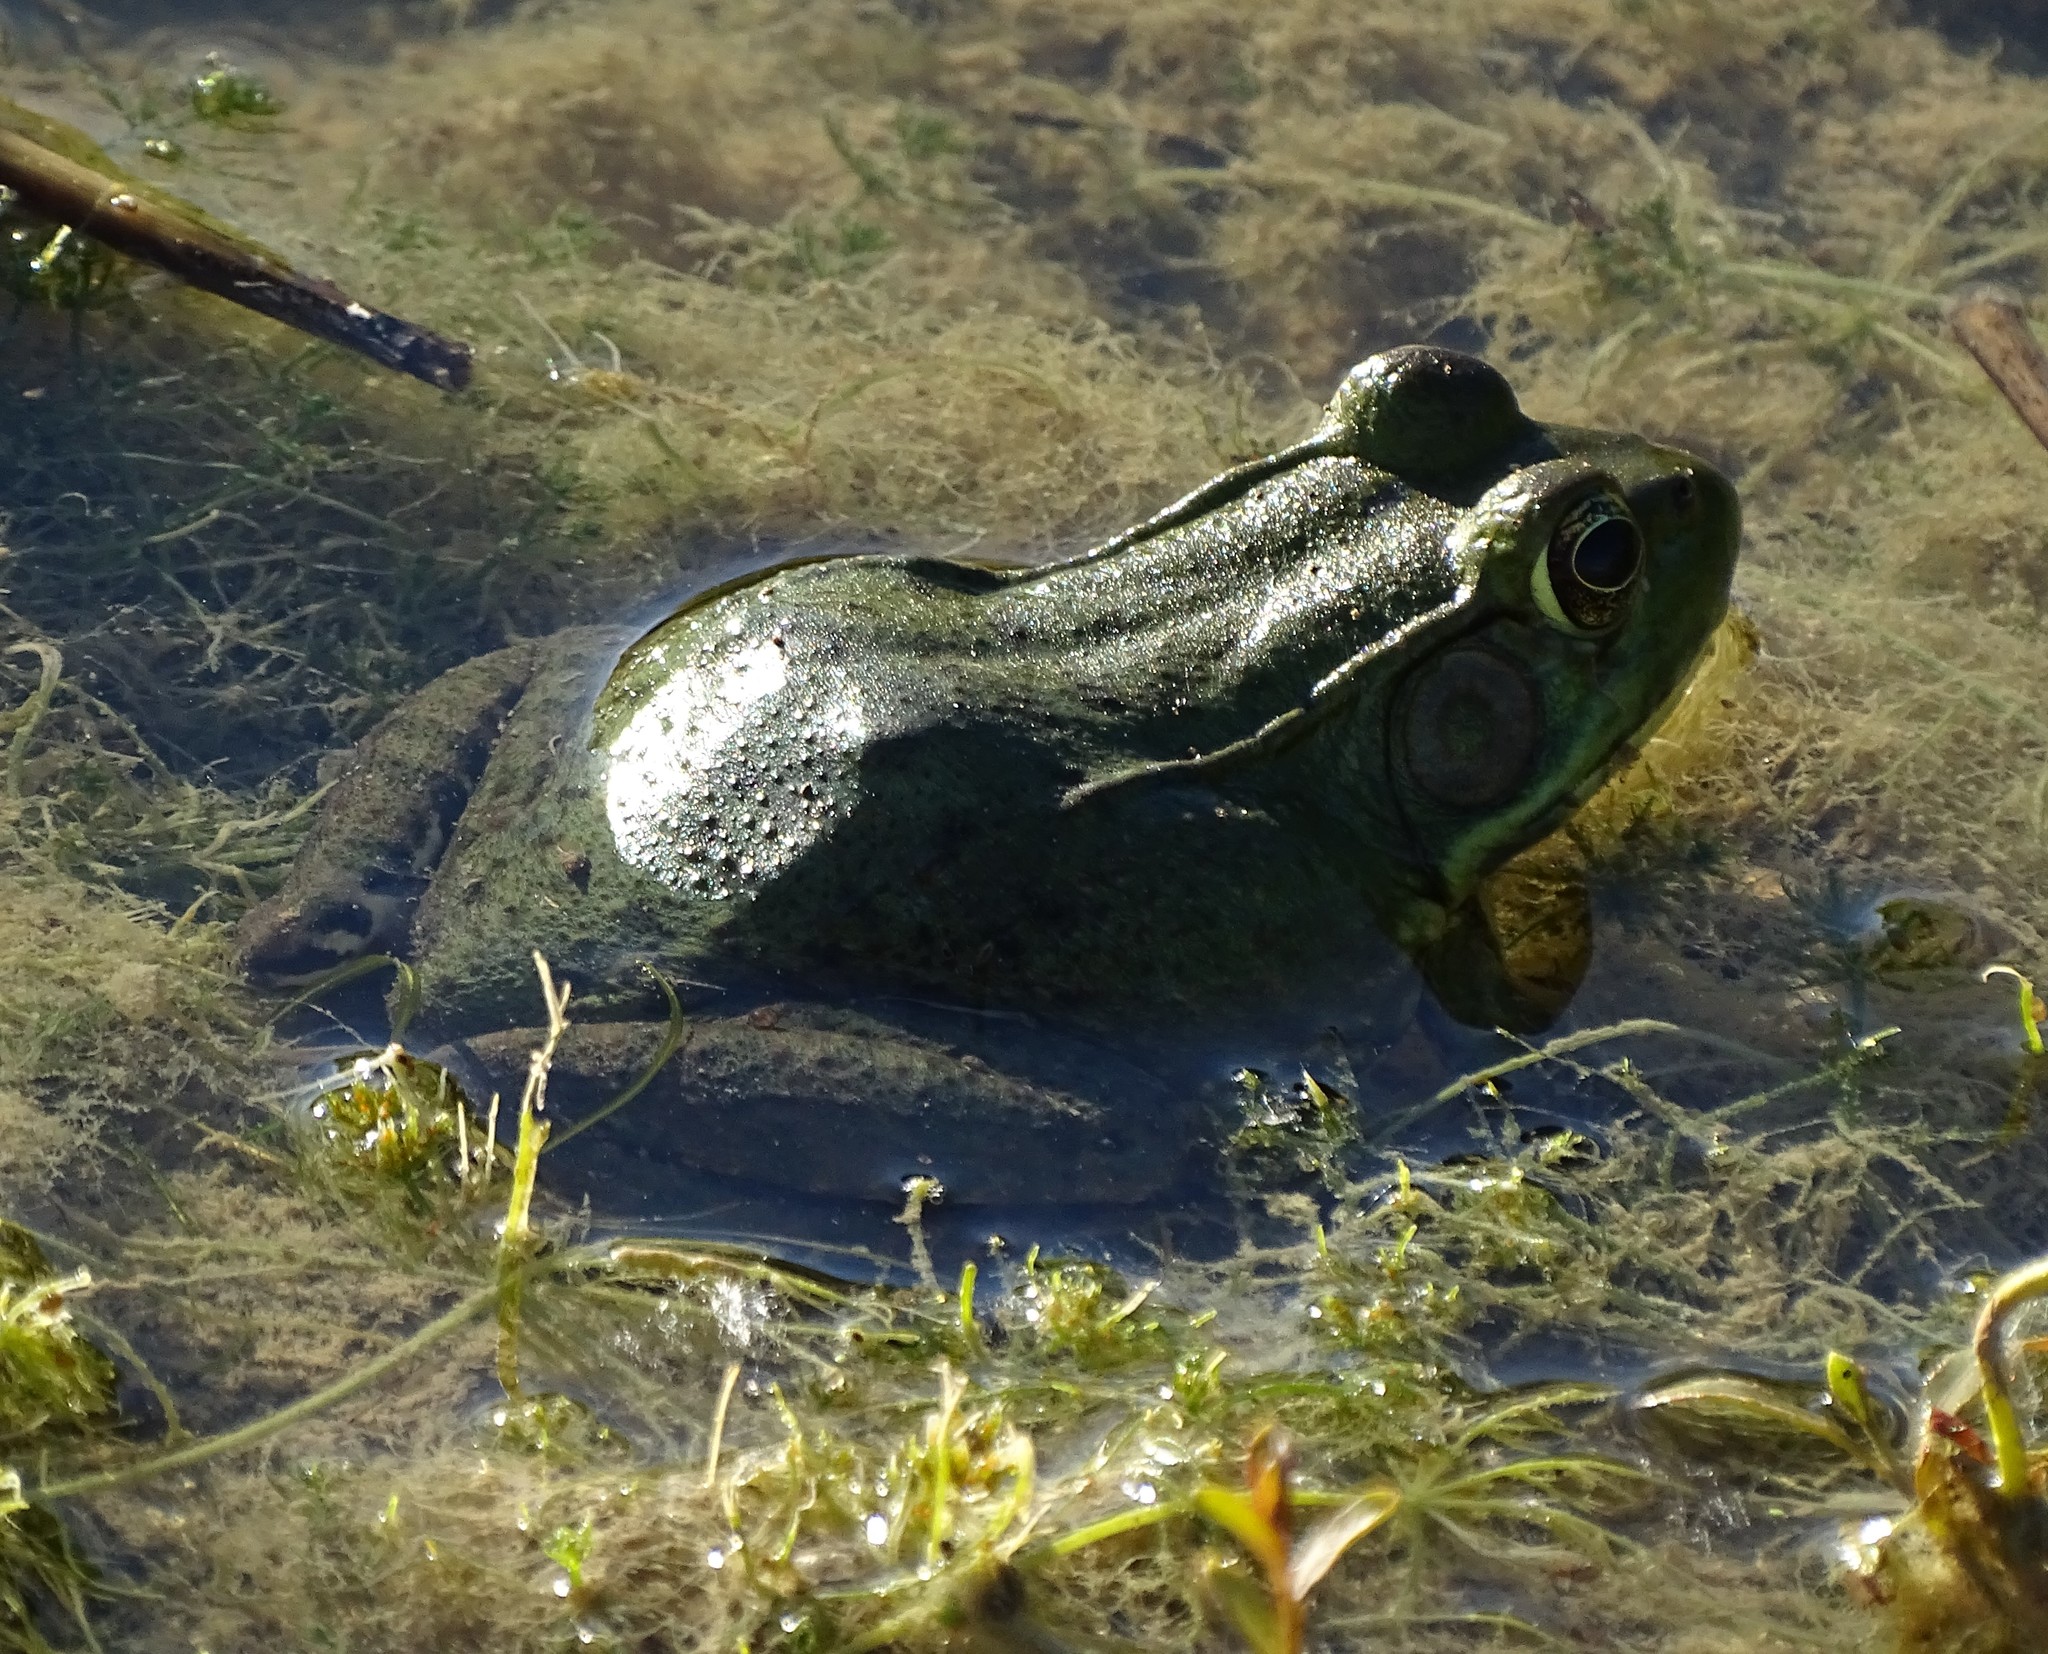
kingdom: Animalia
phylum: Chordata
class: Amphibia
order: Anura
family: Ranidae
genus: Lithobates
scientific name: Lithobates clamitans
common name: Green frog
